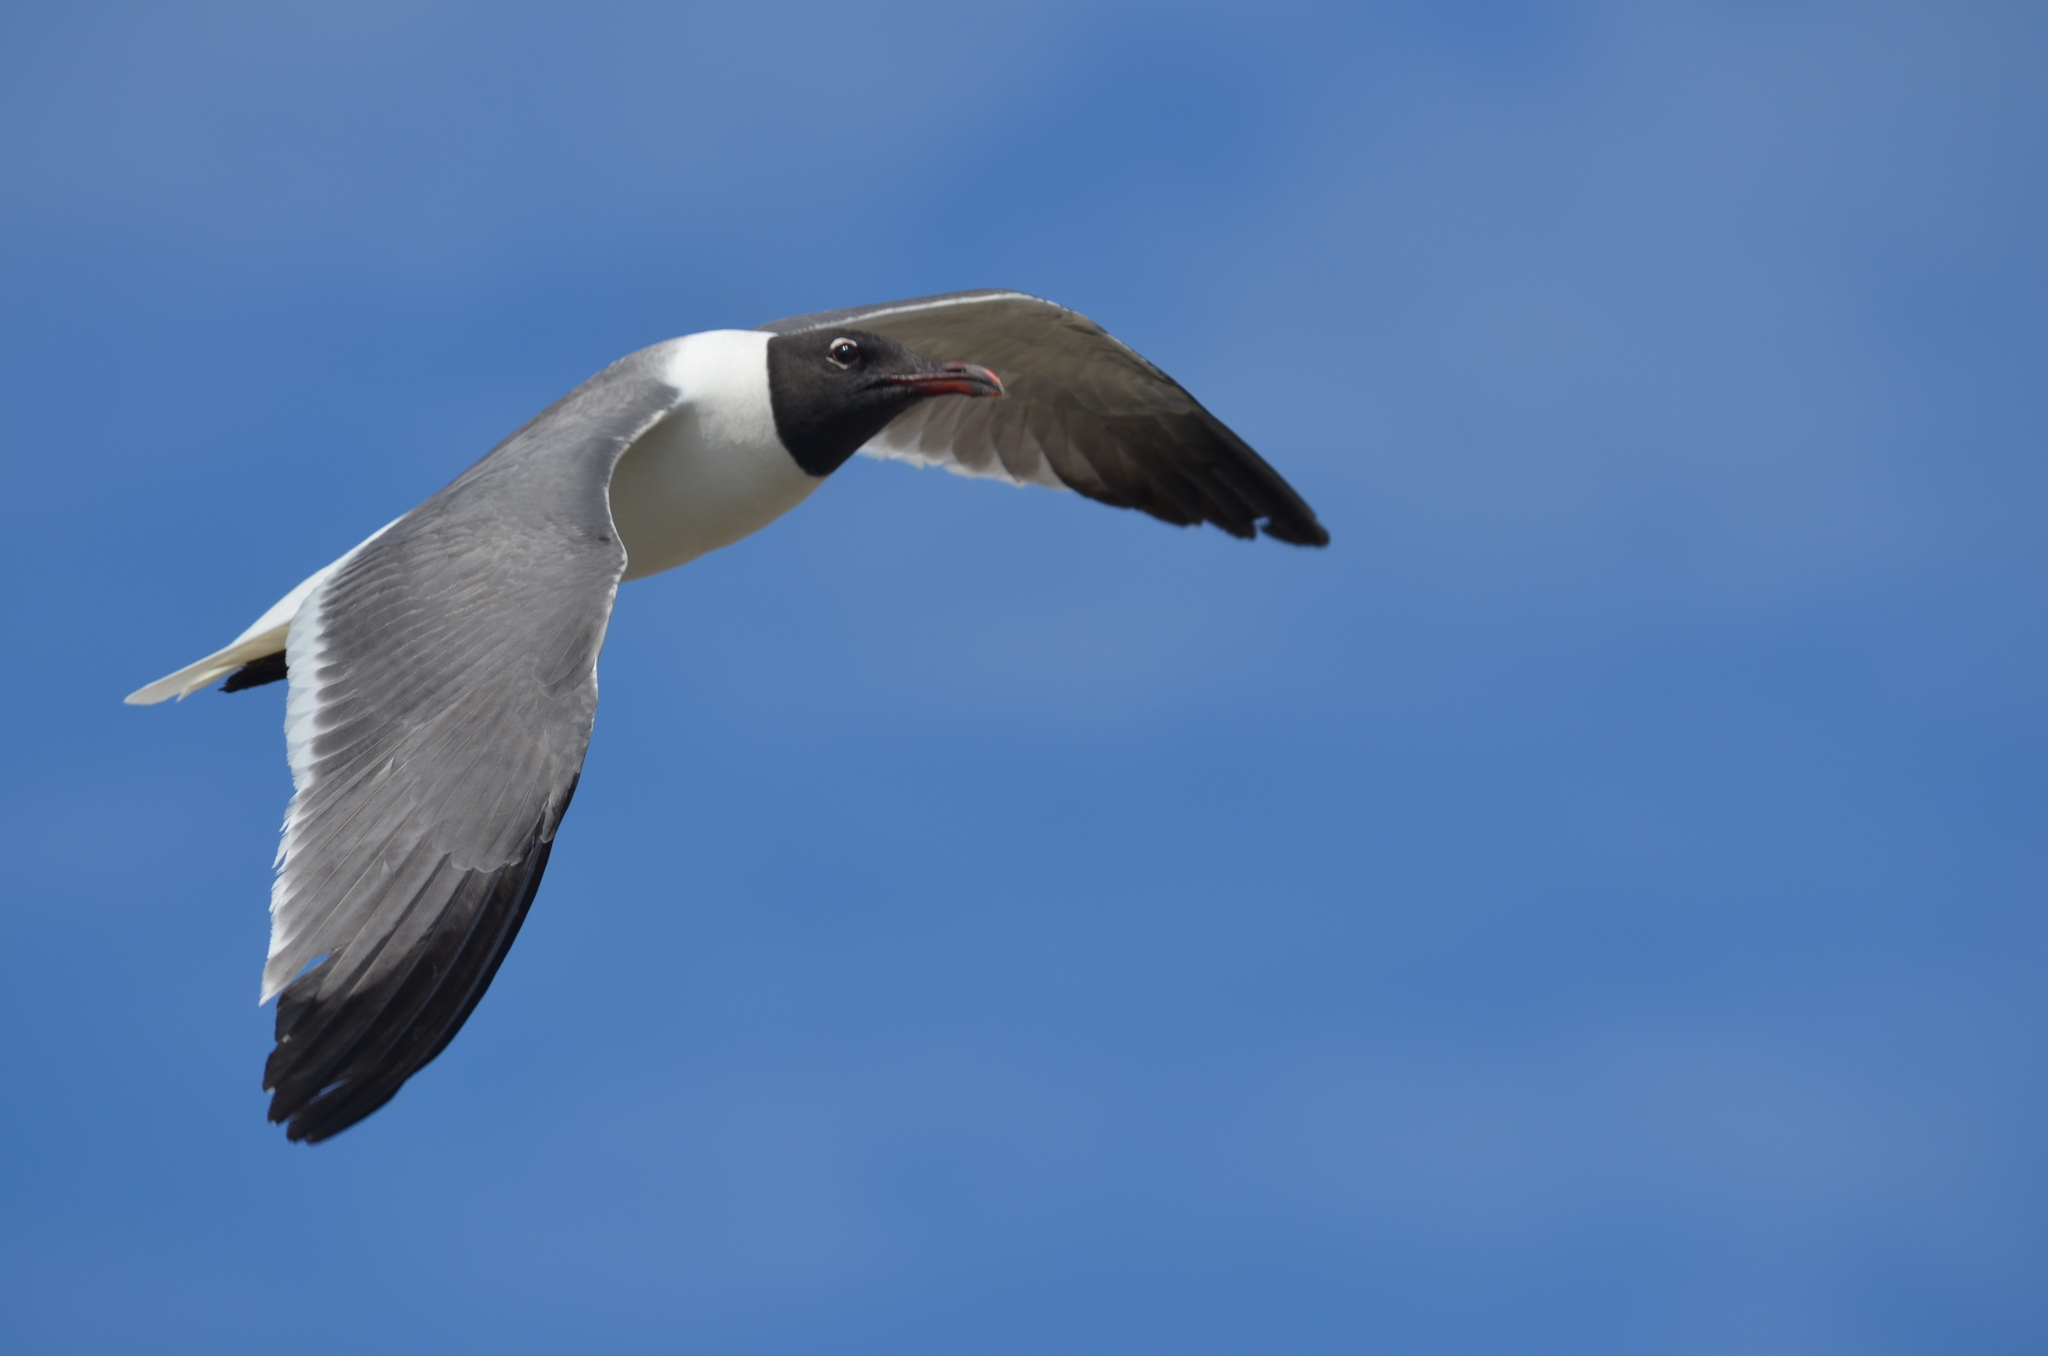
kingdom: Animalia
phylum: Chordata
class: Aves
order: Charadriiformes
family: Laridae
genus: Leucophaeus
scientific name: Leucophaeus atricilla
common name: Laughing gull
